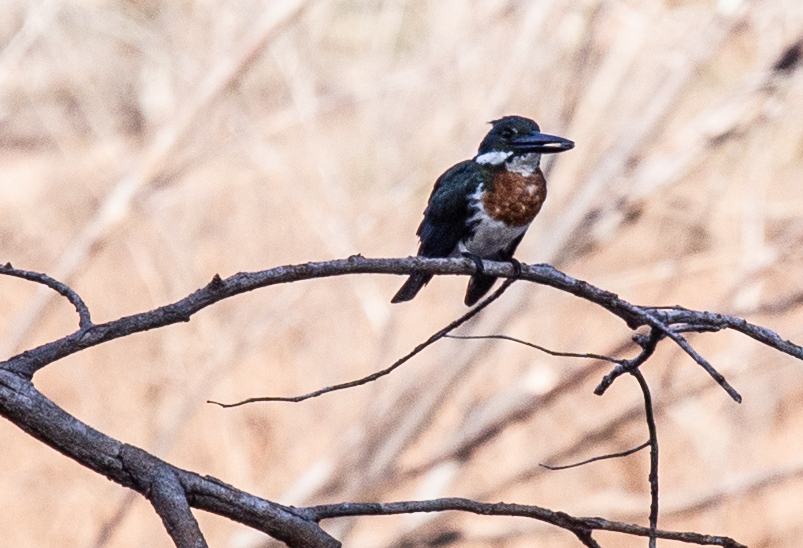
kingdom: Animalia
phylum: Chordata
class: Aves
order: Coraciiformes
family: Alcedinidae
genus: Chloroceryle
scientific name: Chloroceryle amazona
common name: Amazon kingfisher
